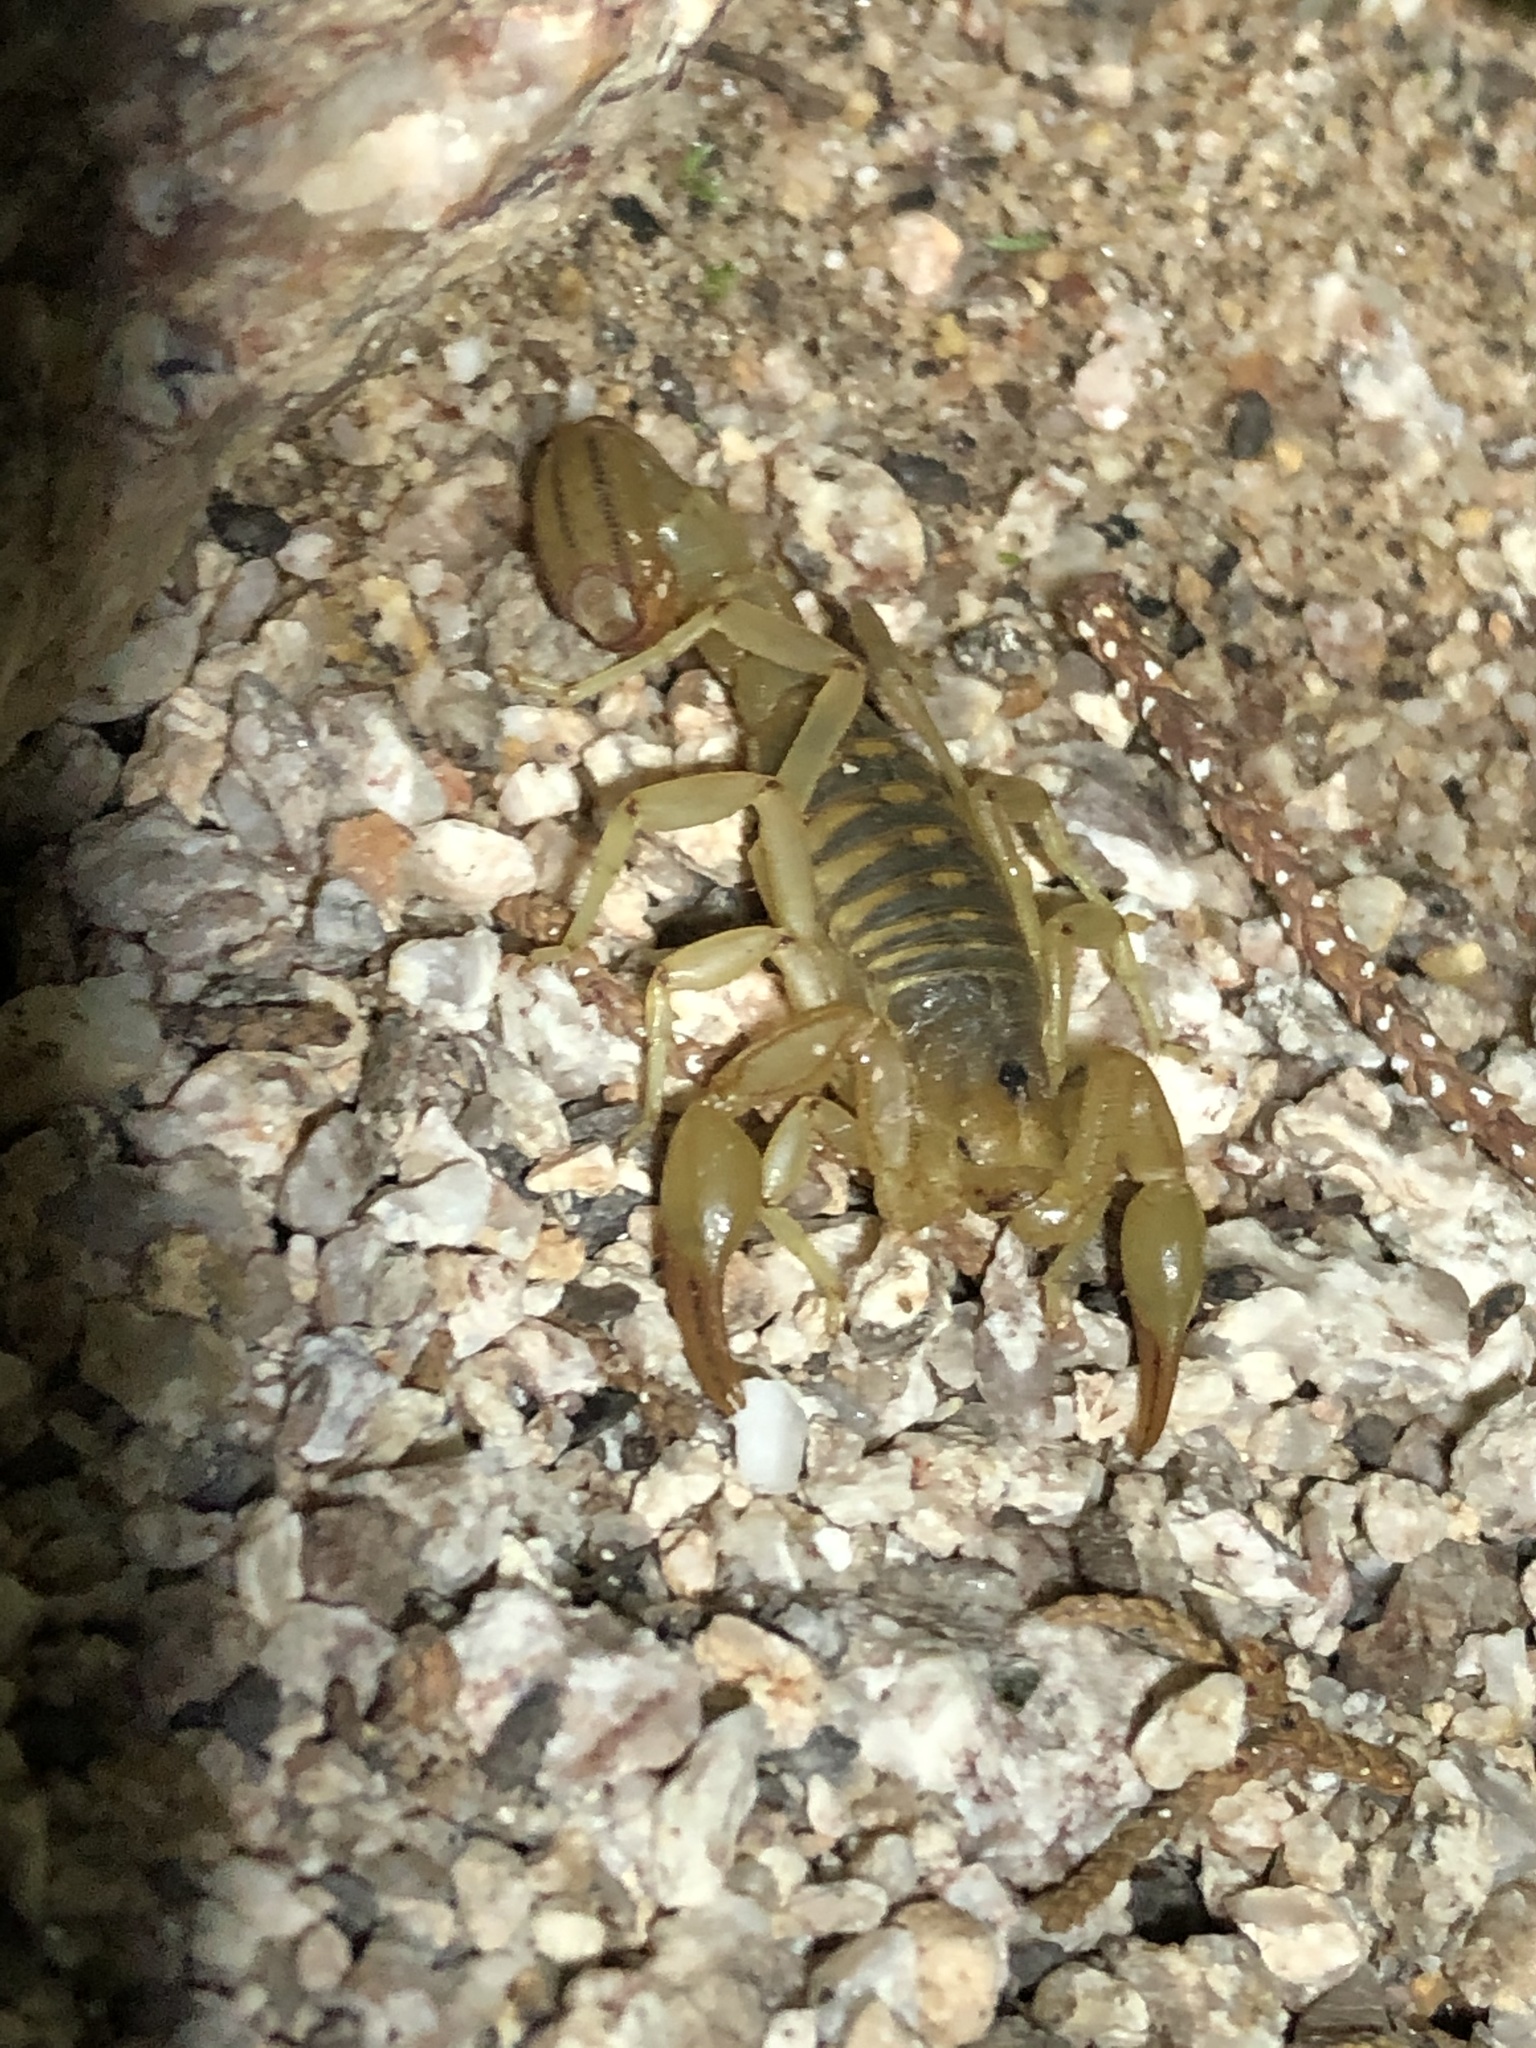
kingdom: Animalia
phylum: Arthropoda
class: Arachnida
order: Scorpiones
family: Vaejovidae
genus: Paravaejovis
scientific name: Paravaejovis spinigerus
